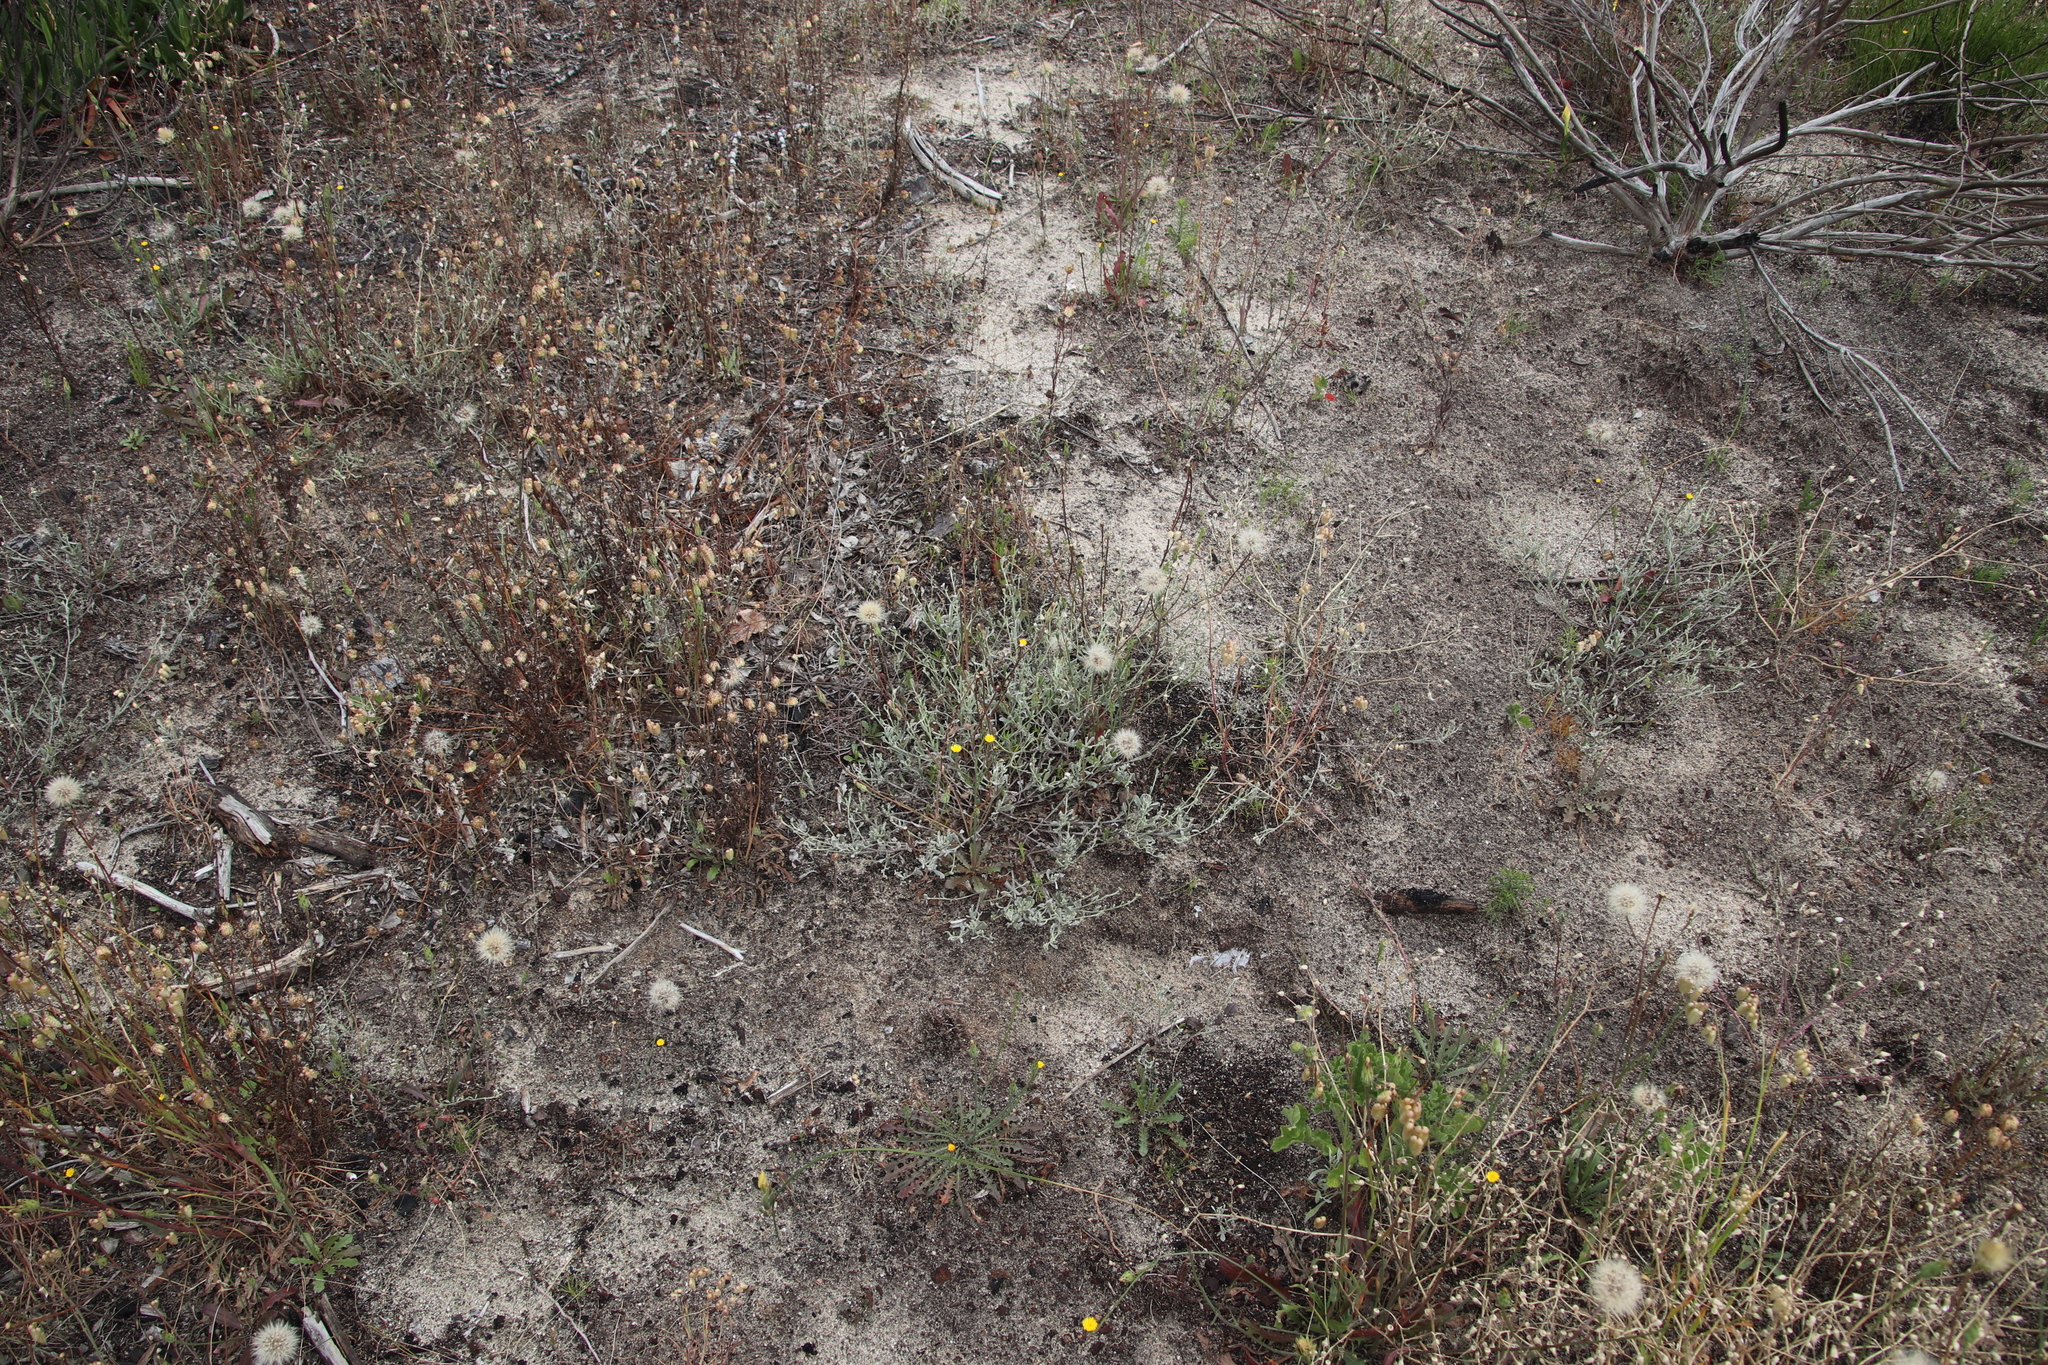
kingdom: Plantae
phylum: Tracheophyta
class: Magnoliopsida
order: Asterales
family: Asteraceae
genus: Helichrysum
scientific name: Helichrysum indicum
